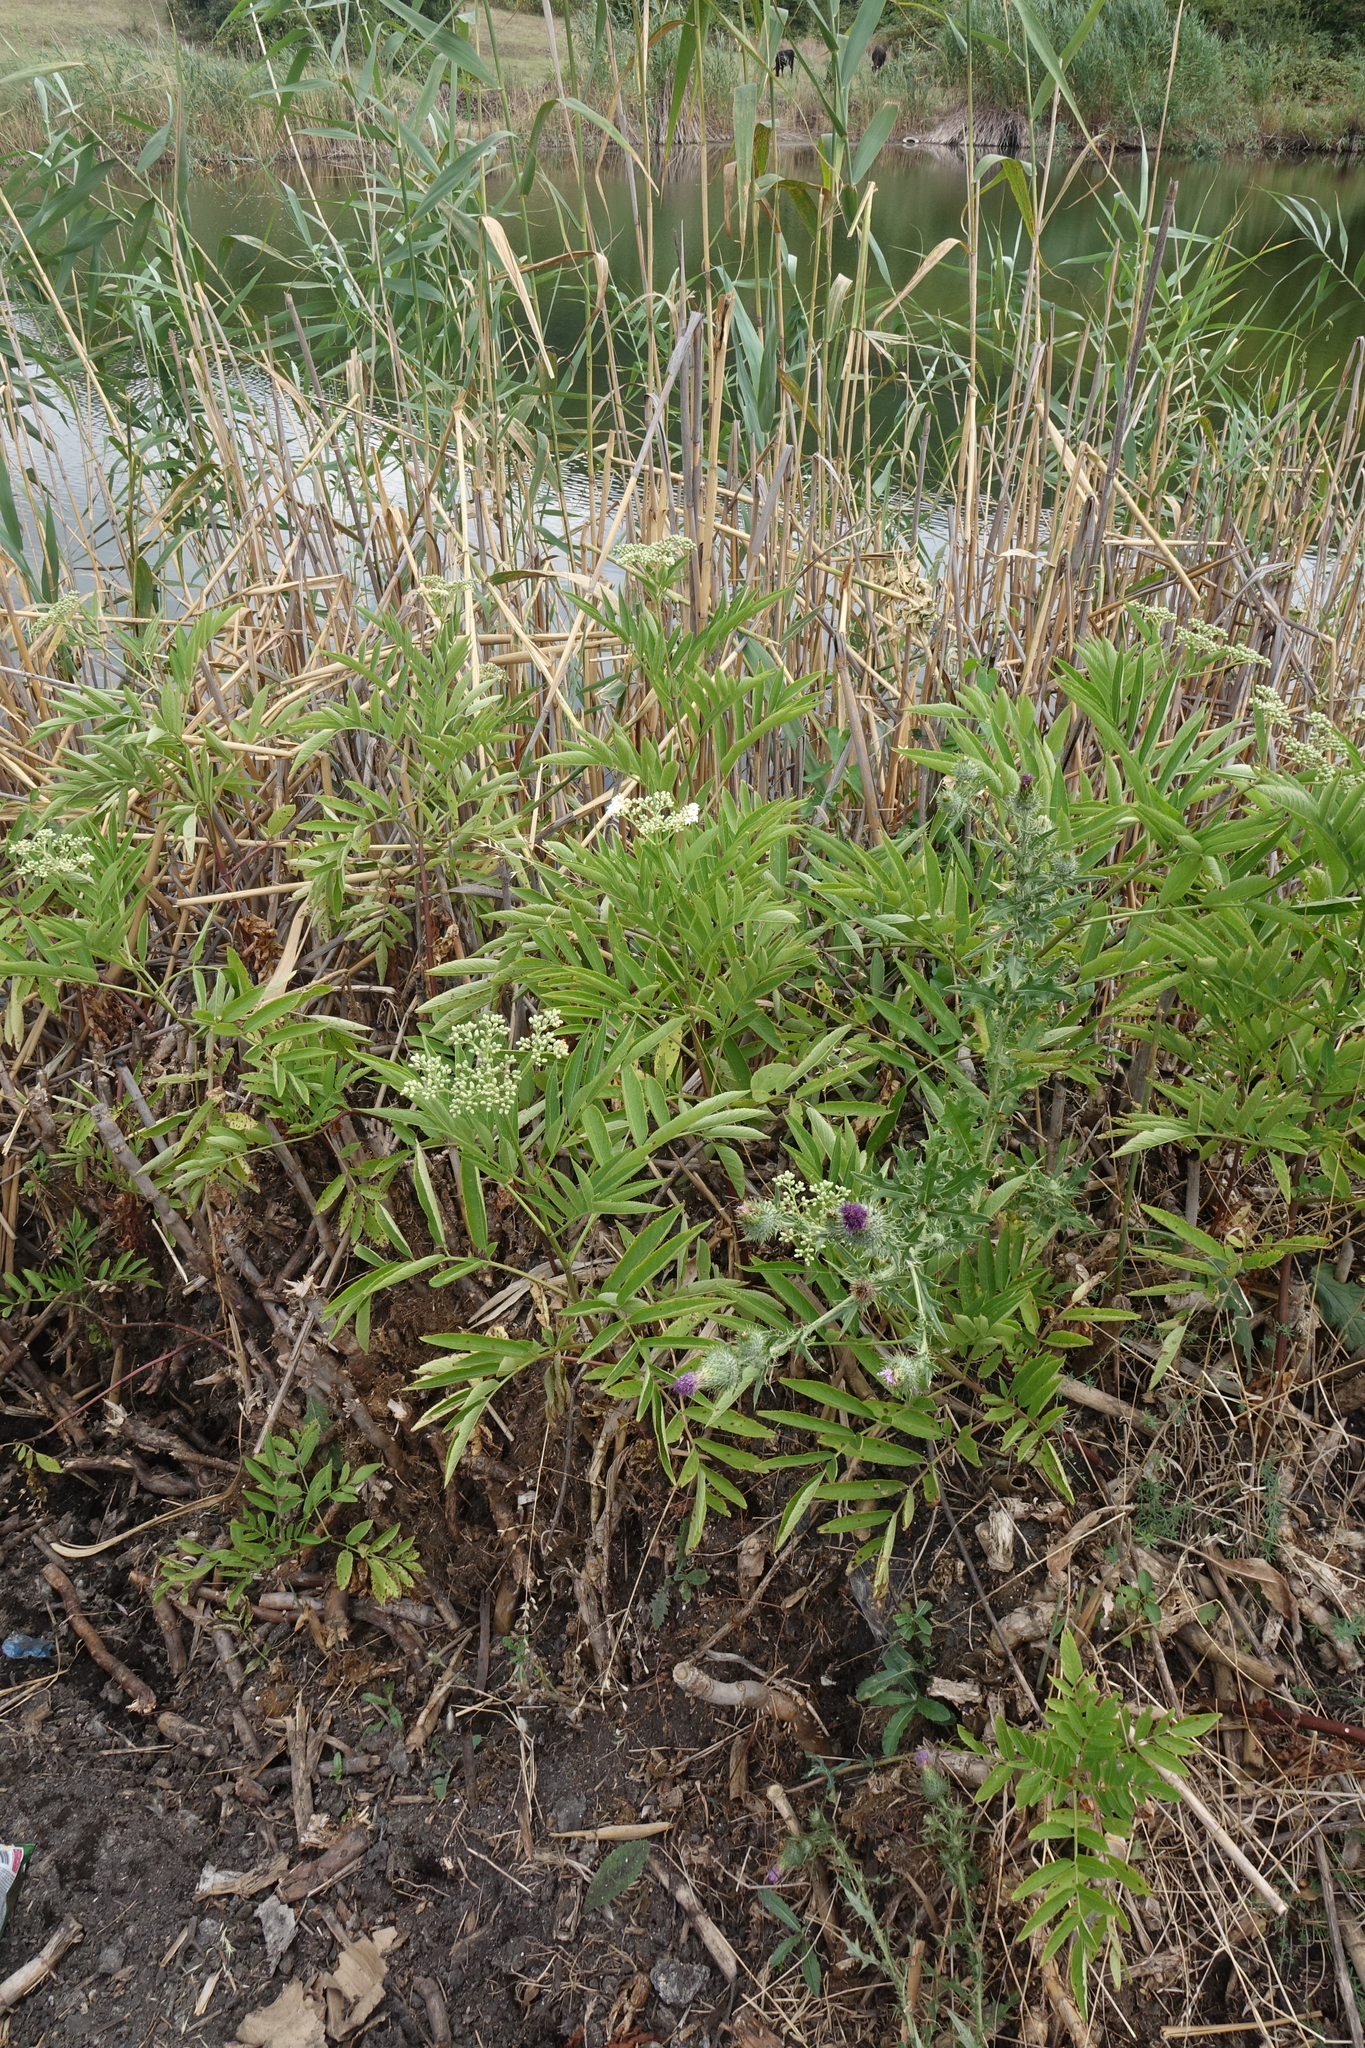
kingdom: Plantae
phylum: Tracheophyta
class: Magnoliopsida
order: Dipsacales
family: Viburnaceae
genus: Sambucus
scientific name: Sambucus ebulus
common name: Dwarf elder
